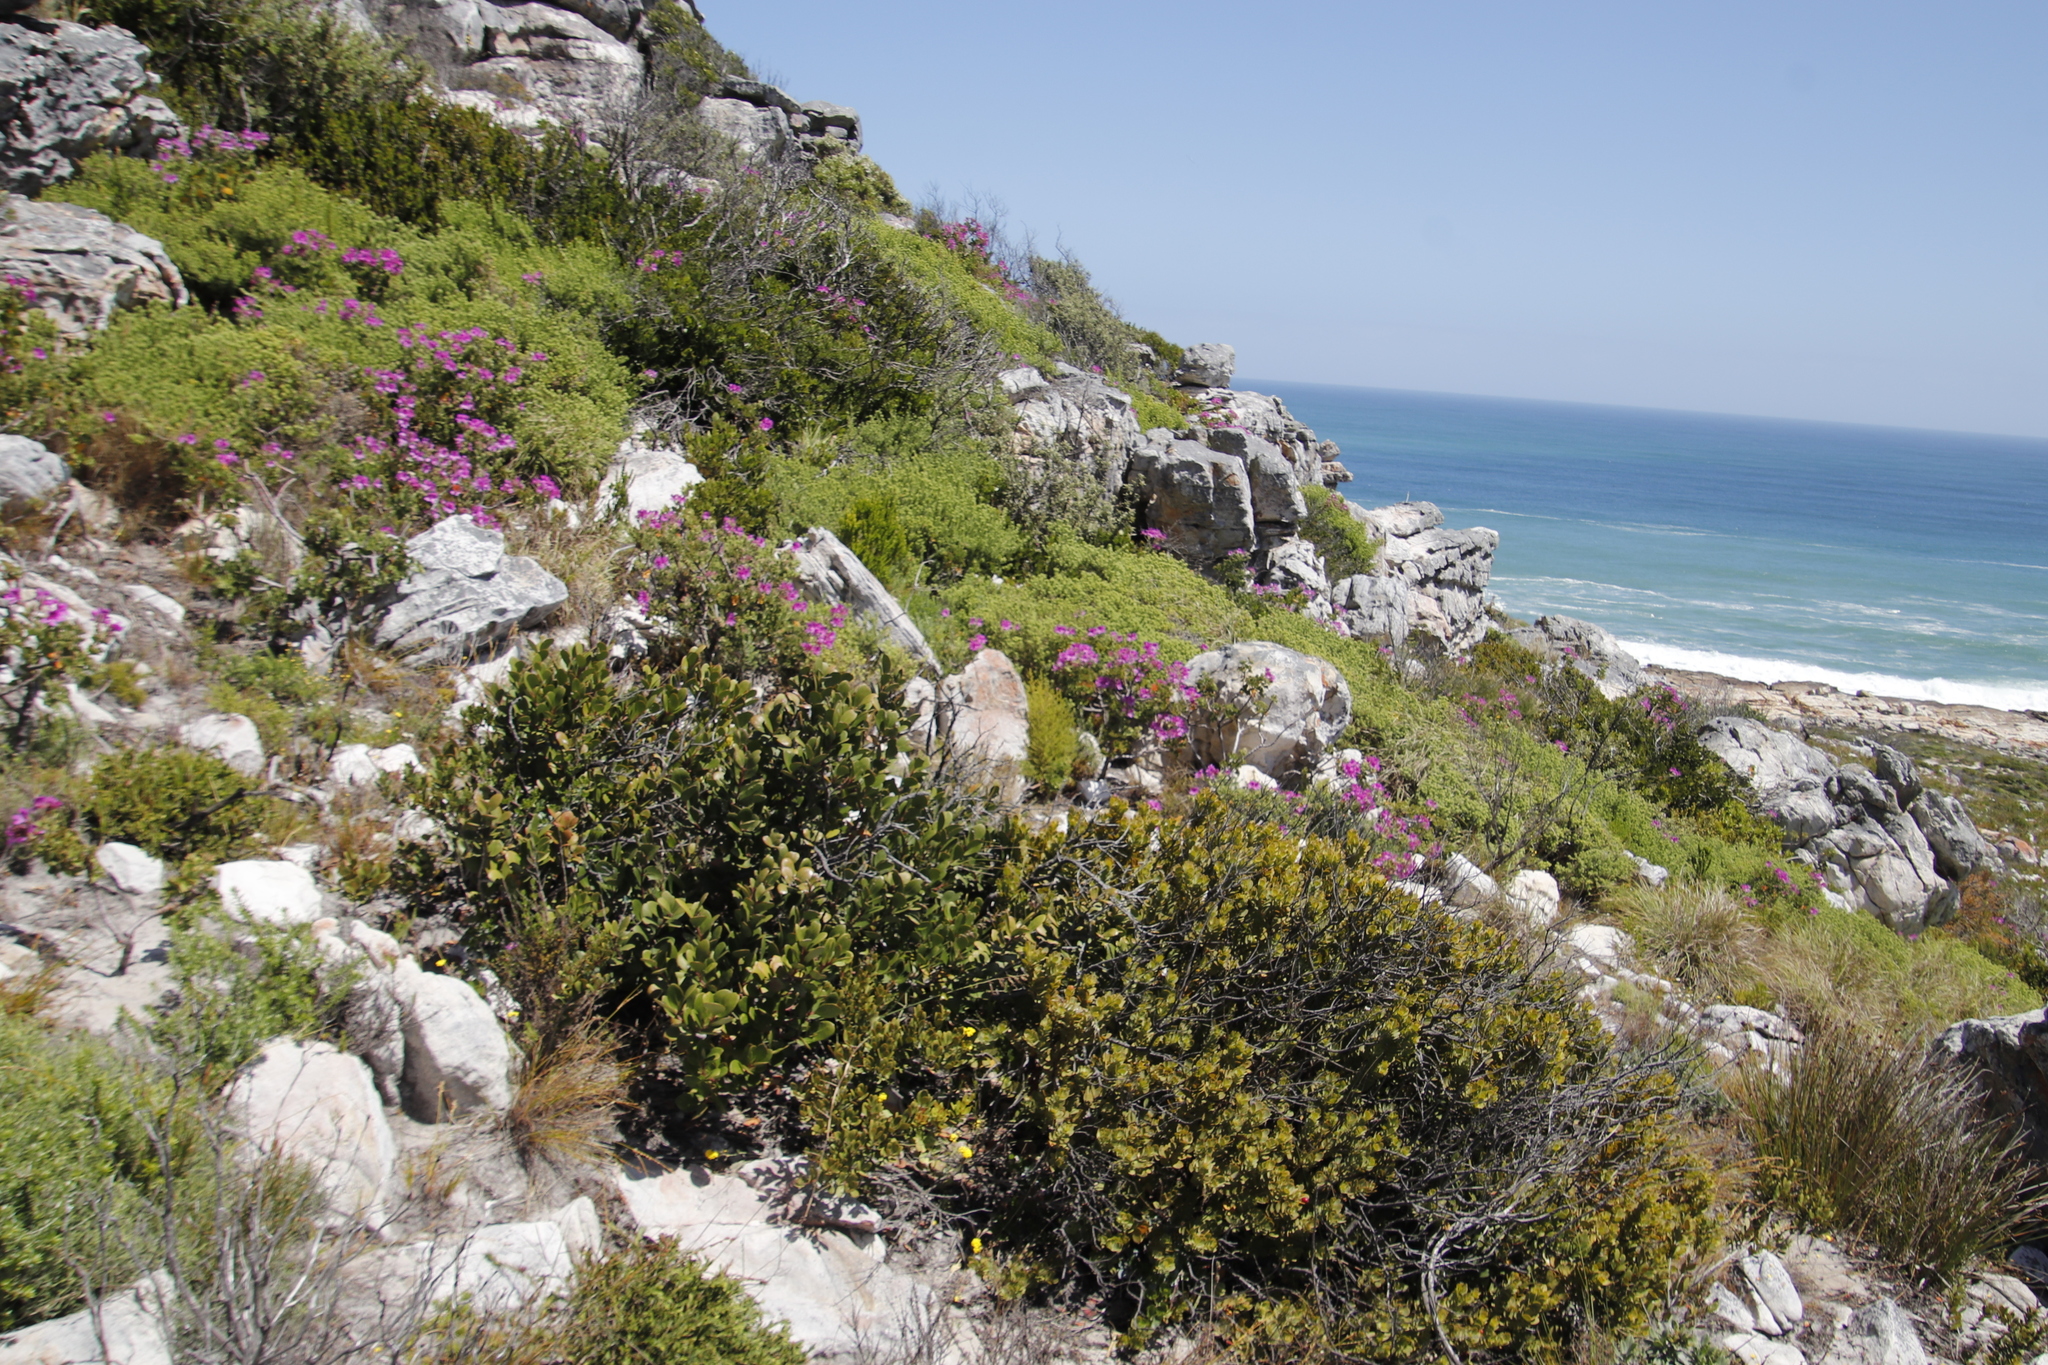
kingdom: Plantae
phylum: Tracheophyta
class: Magnoliopsida
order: Santalales
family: Santalaceae
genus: Osyris
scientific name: Osyris compressa
